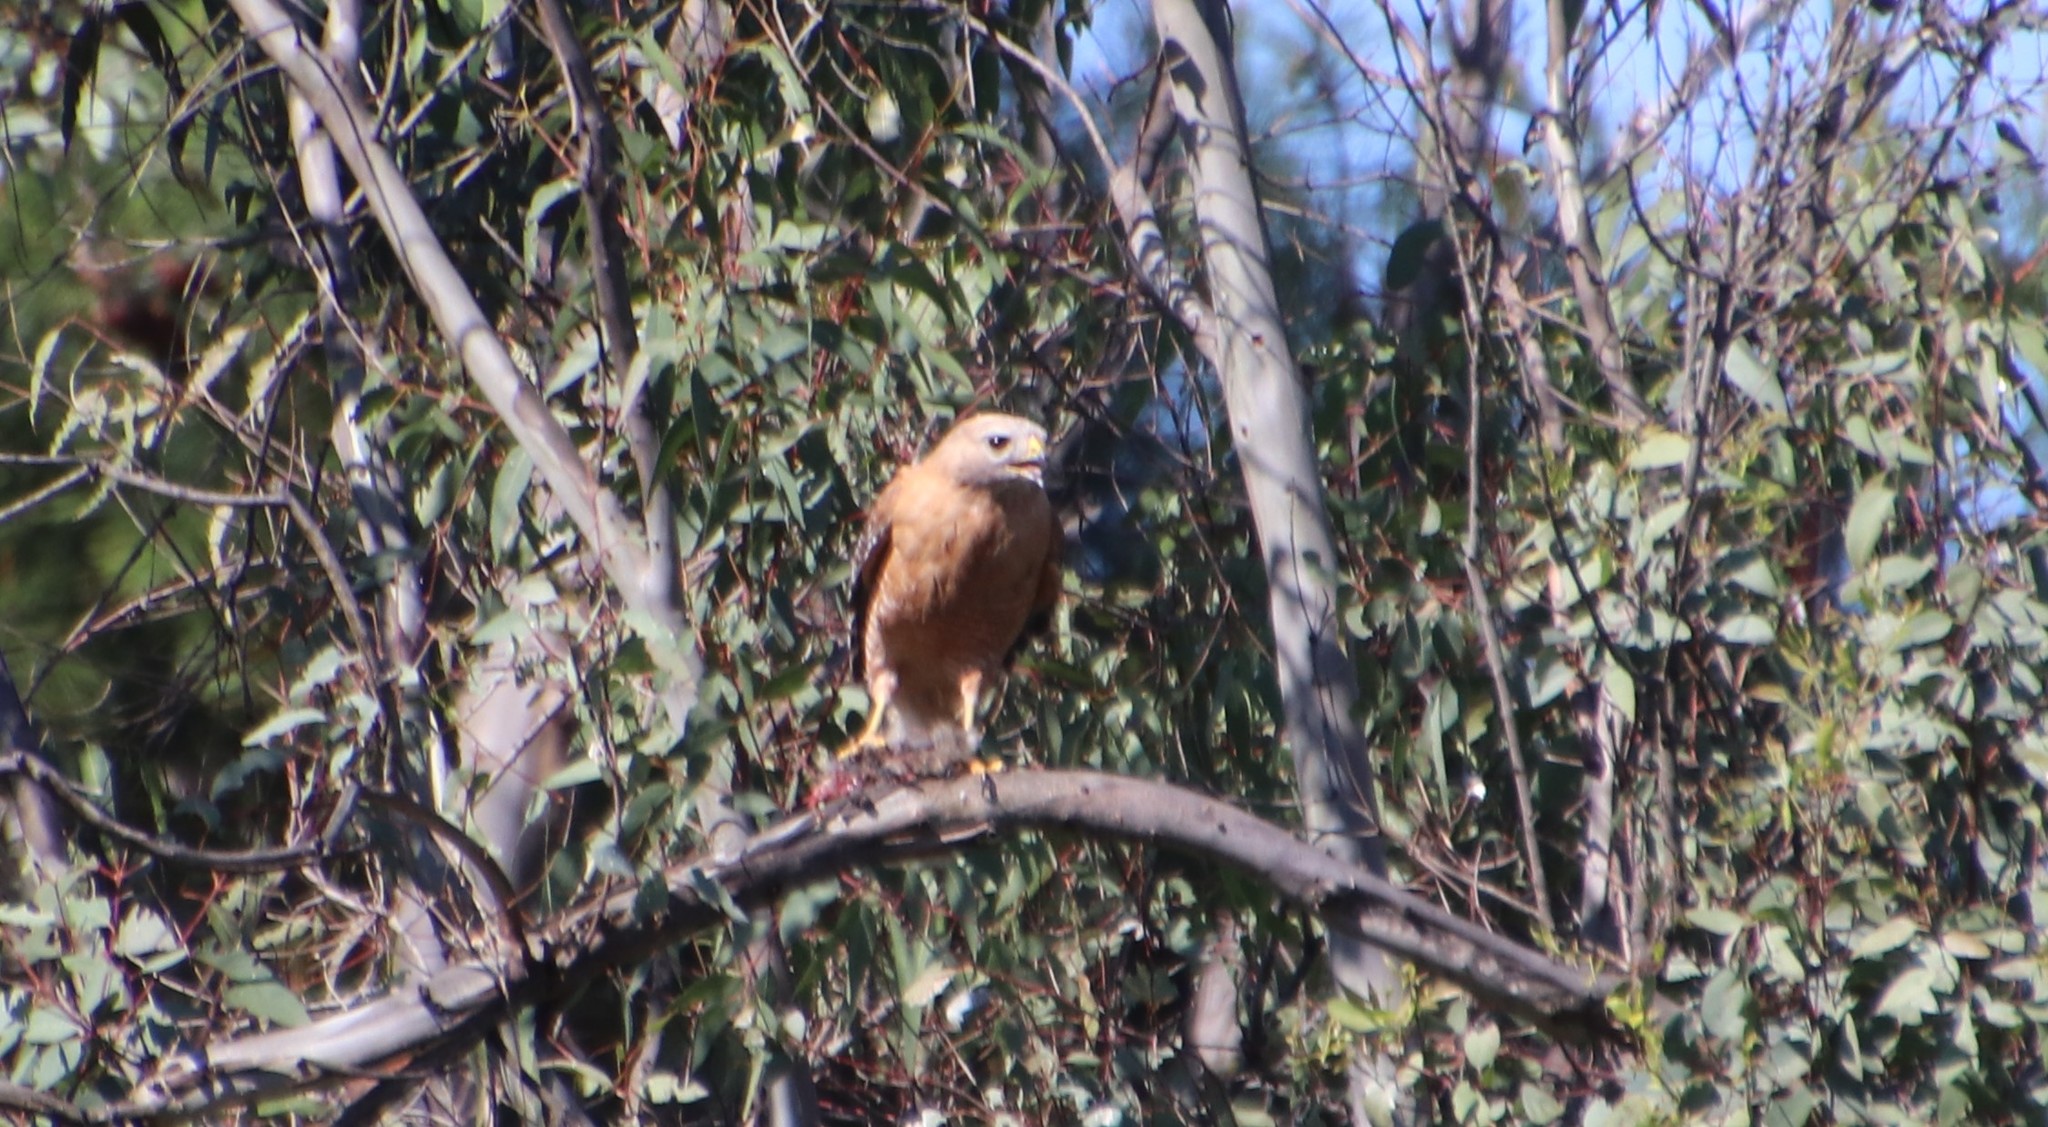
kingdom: Animalia
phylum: Chordata
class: Aves
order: Accipitriformes
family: Accipitridae
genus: Buteo
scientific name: Buteo lineatus
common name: Red-shouldered hawk
